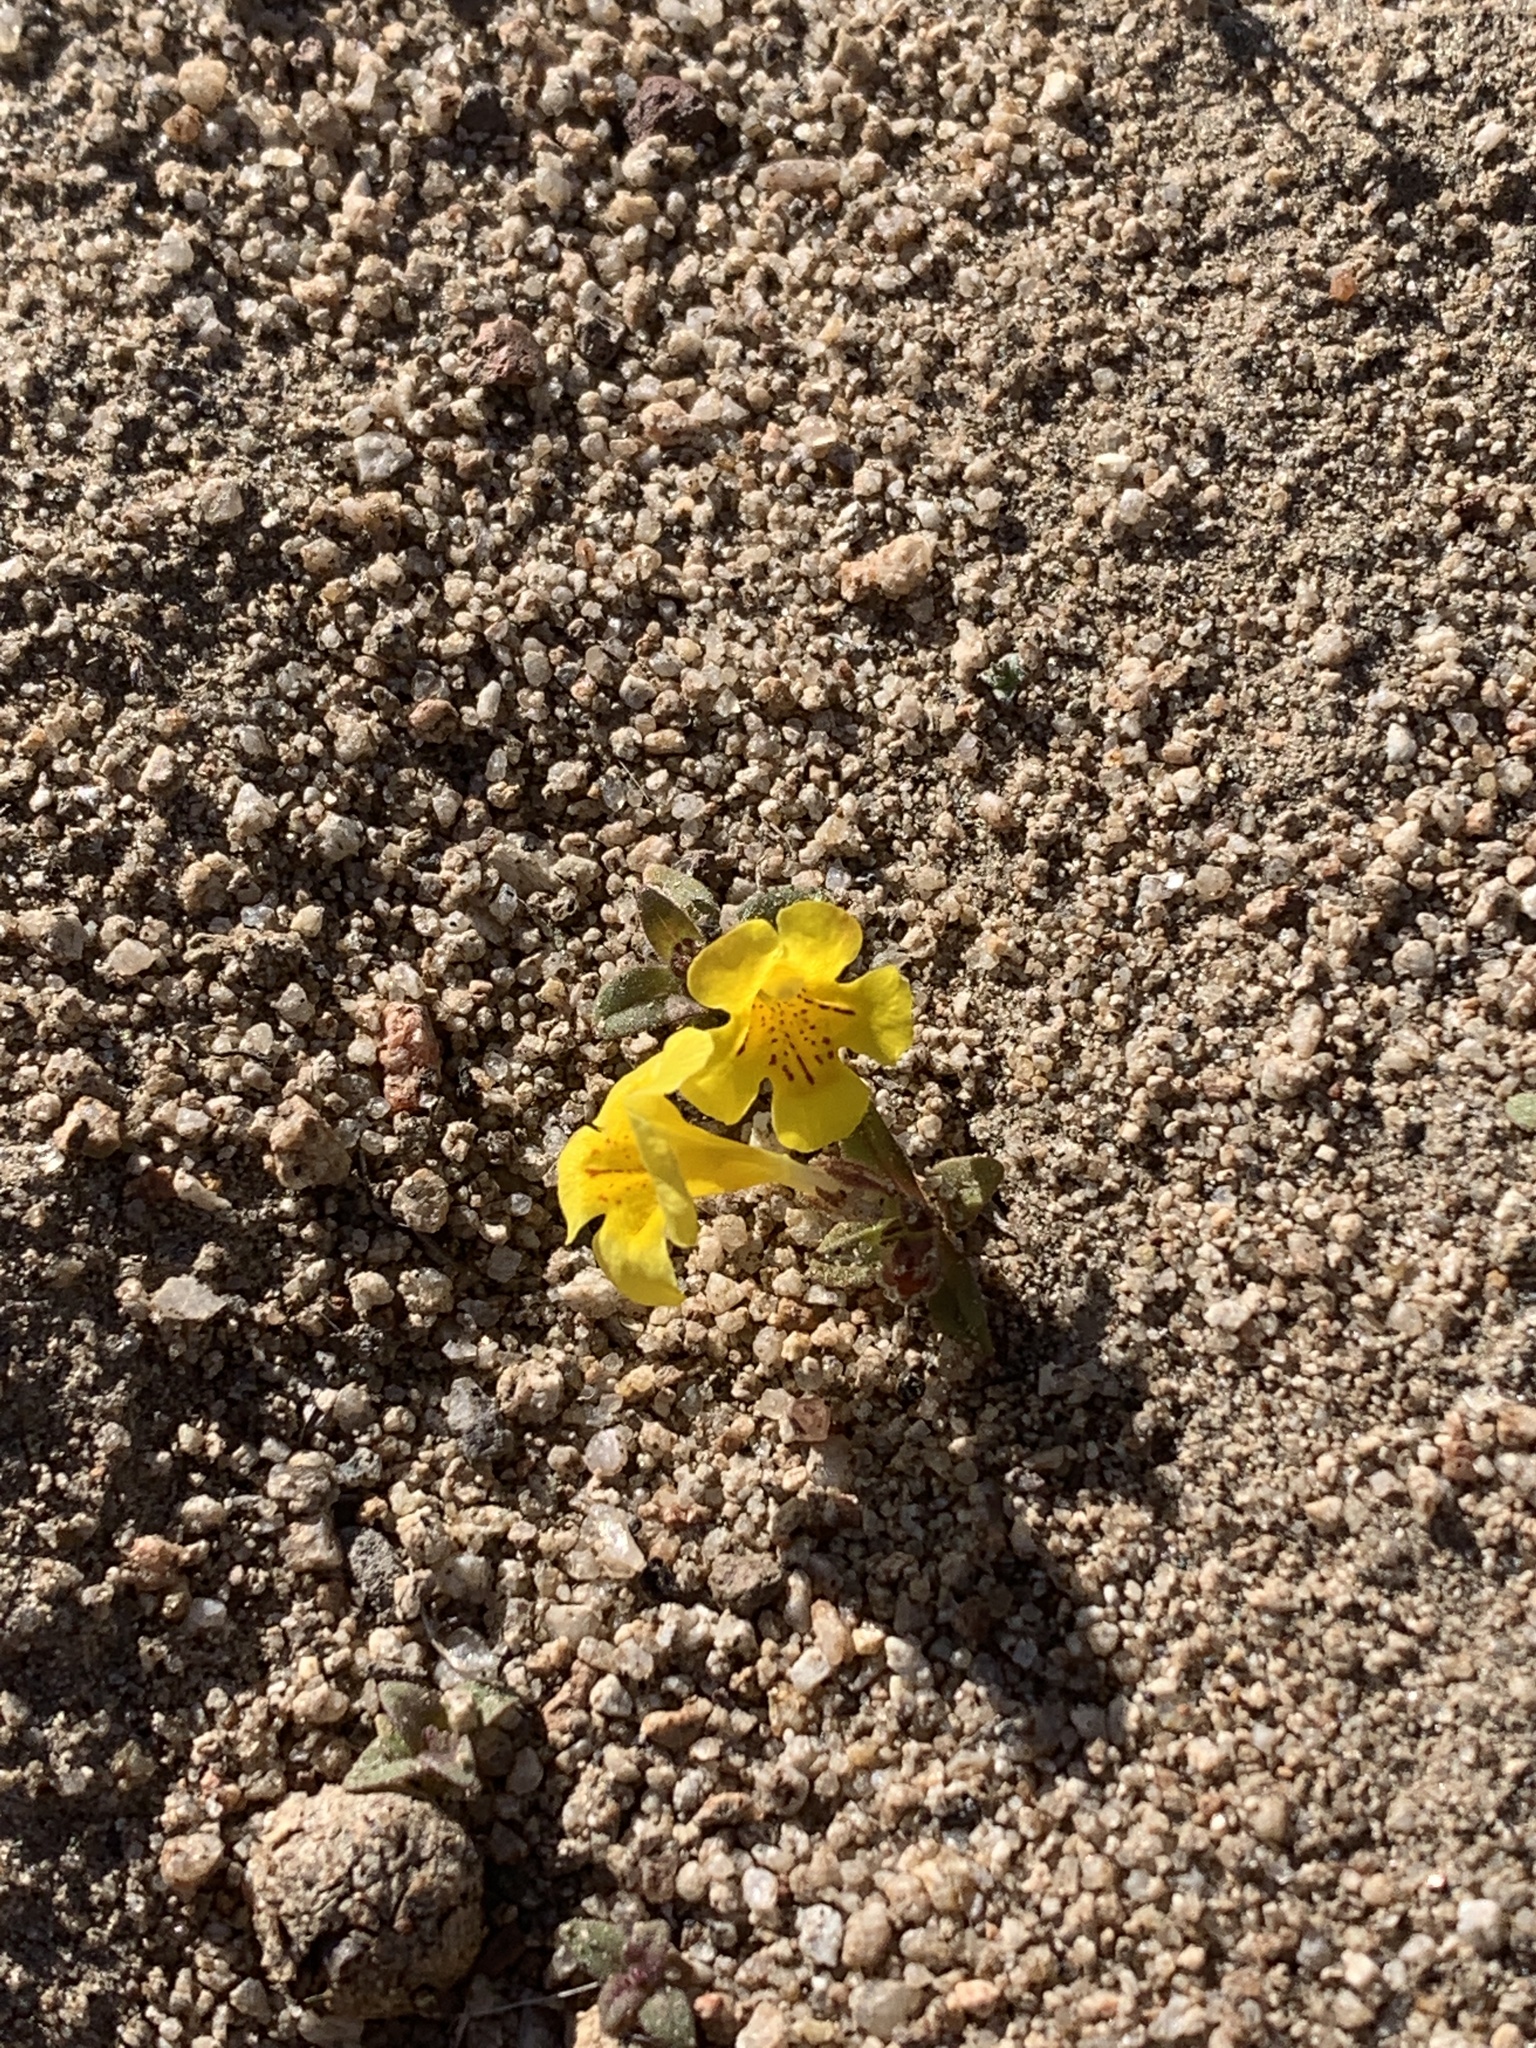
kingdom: Plantae
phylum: Tracheophyta
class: Magnoliopsida
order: Lamiales
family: Phrymaceae
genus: Diplacus
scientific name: Diplacus mephiticus
